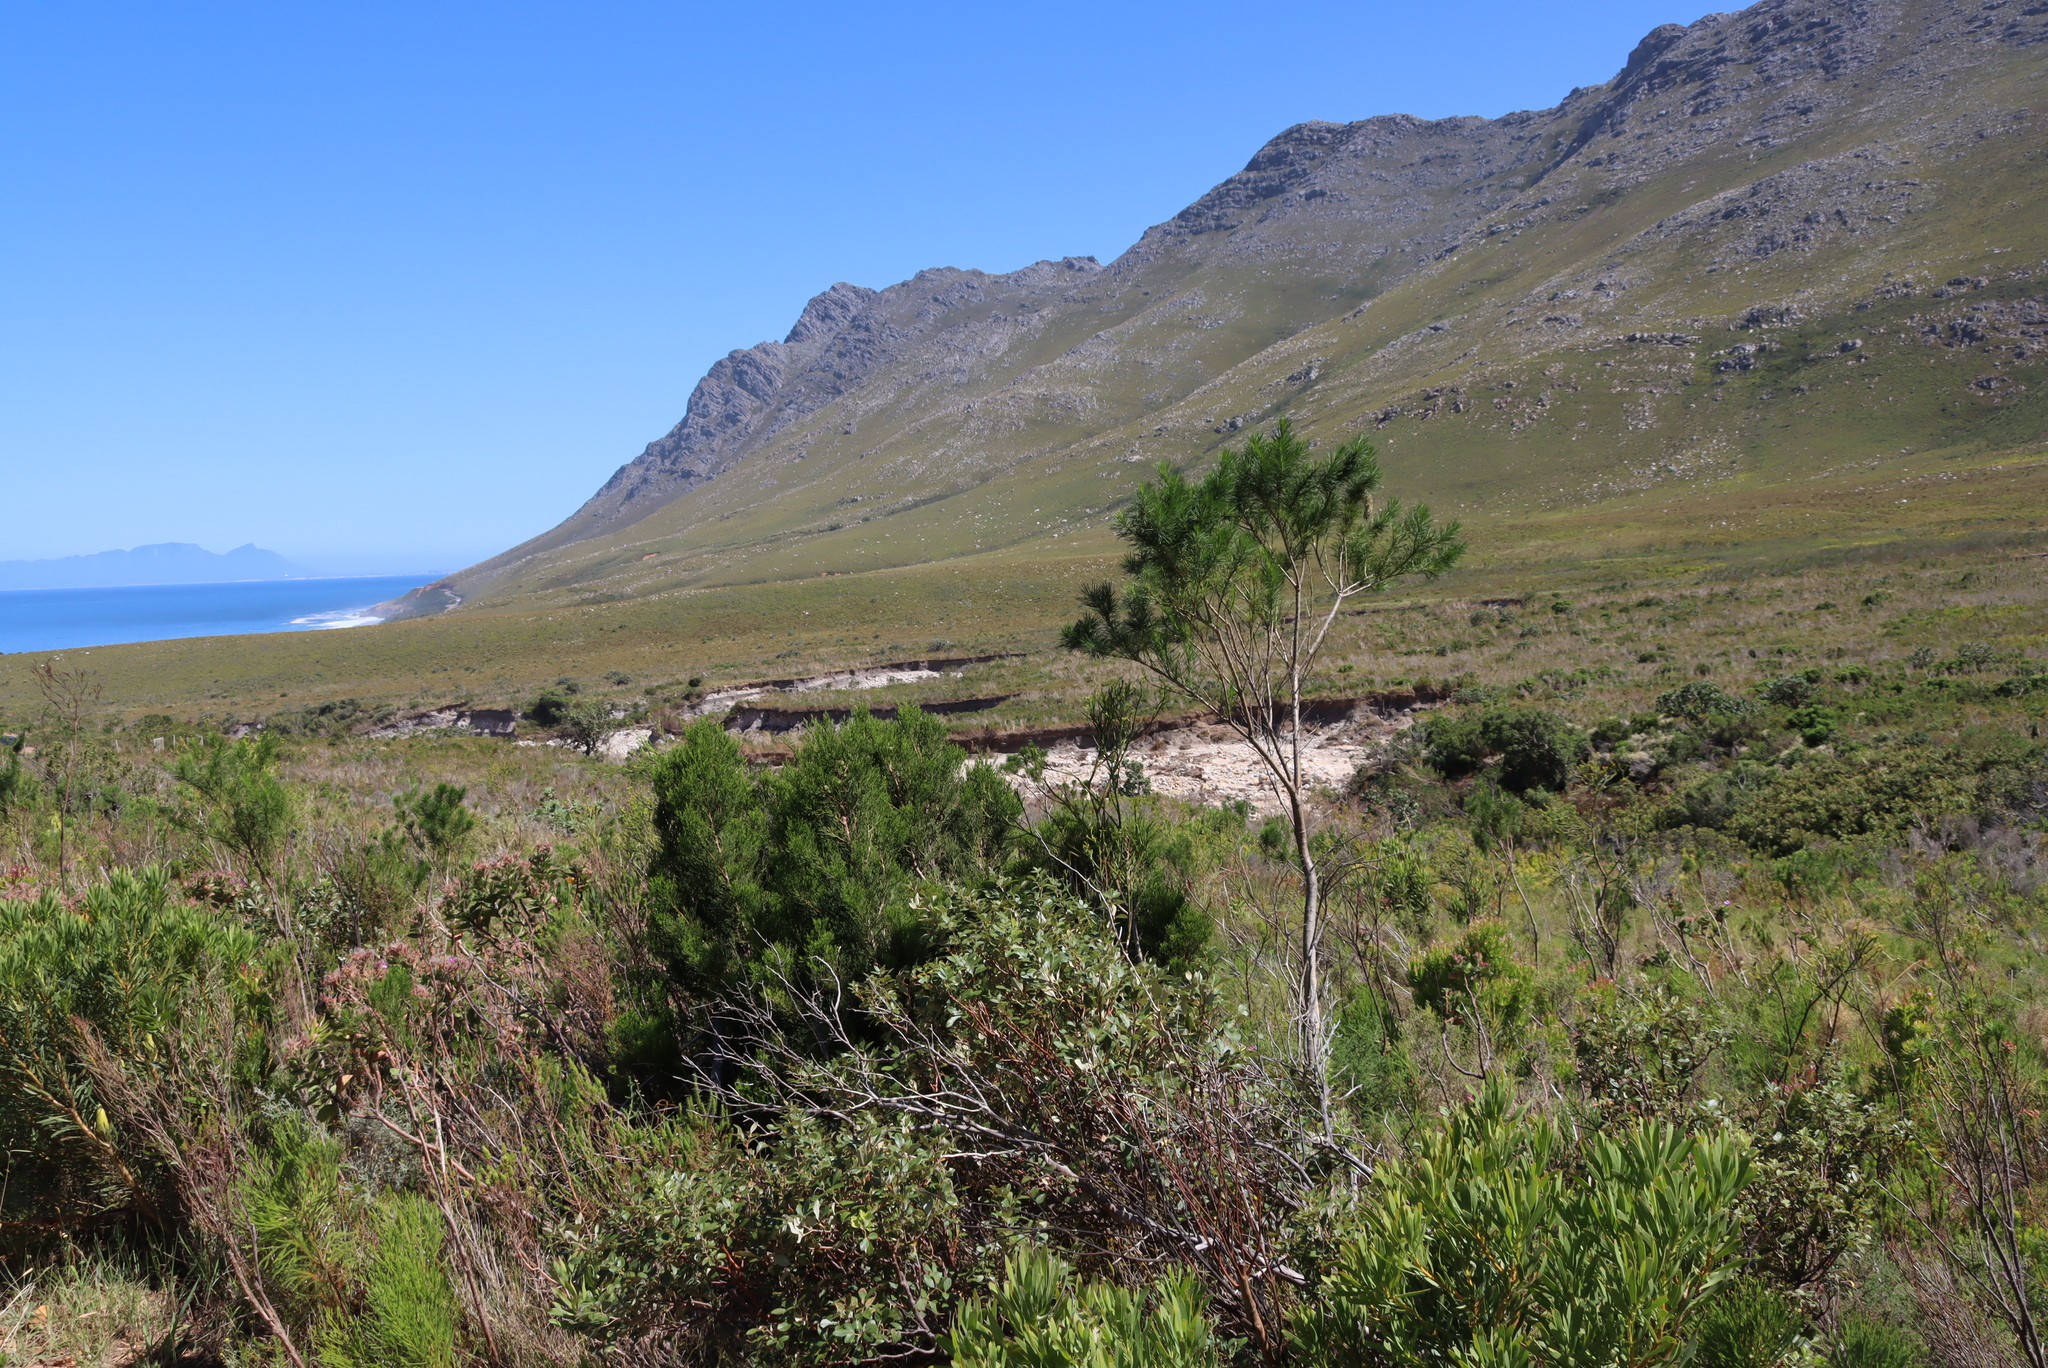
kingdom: Plantae
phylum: Tracheophyta
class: Magnoliopsida
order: Fabales
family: Fabaceae
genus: Psoralea
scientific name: Psoralea pinnata
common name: African scurfpea
